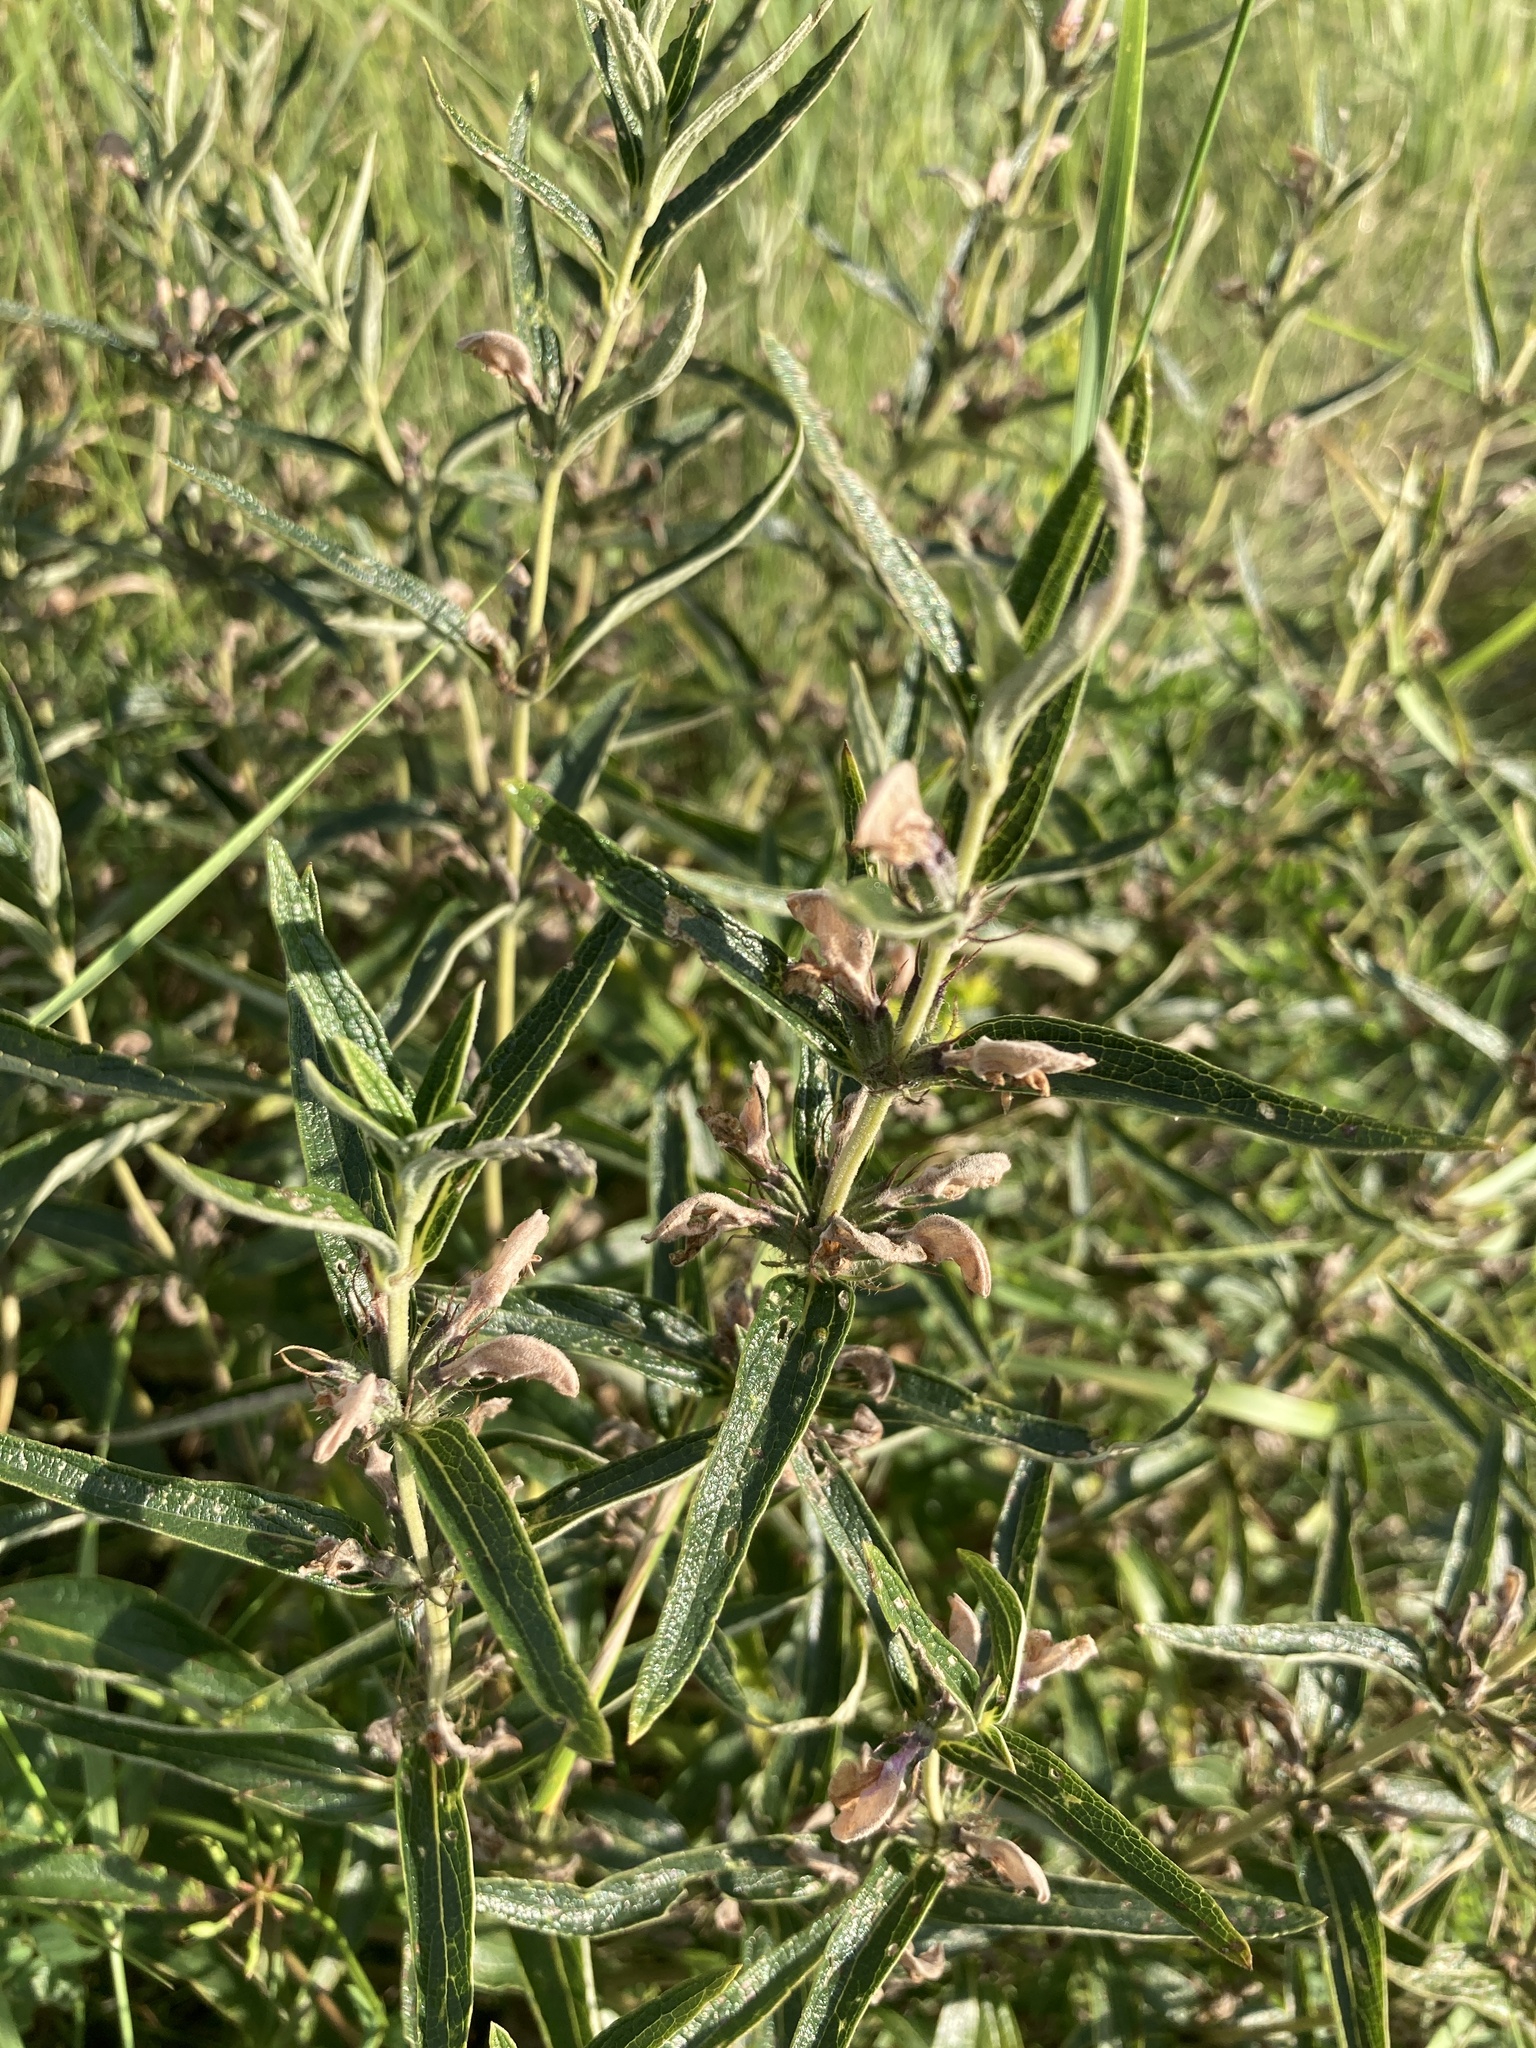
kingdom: Plantae
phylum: Tracheophyta
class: Magnoliopsida
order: Lamiales
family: Lamiaceae
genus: Phlomis
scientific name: Phlomis herba-venti
